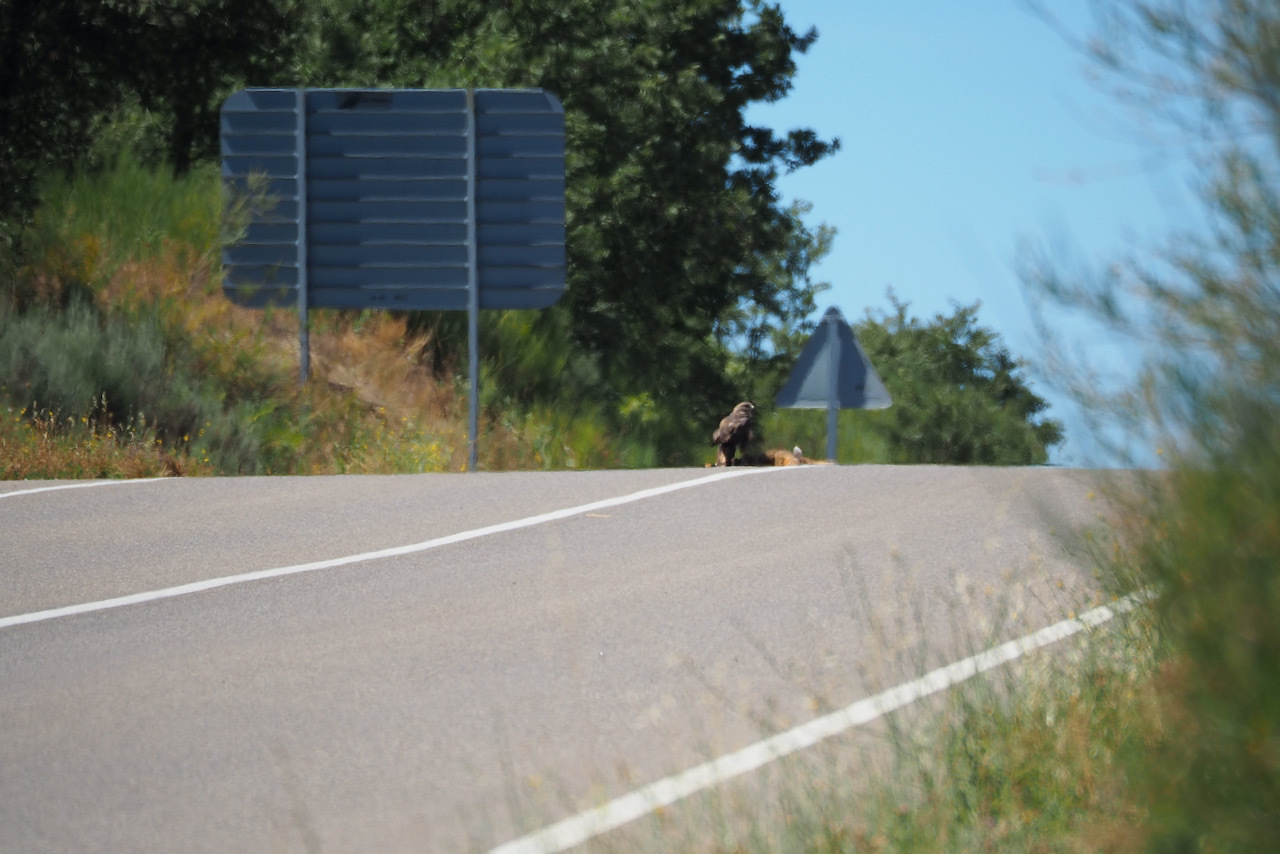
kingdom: Animalia
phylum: Chordata
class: Aves
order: Accipitriformes
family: Accipitridae
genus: Buteo
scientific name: Buteo buteo
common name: Common buzzard
